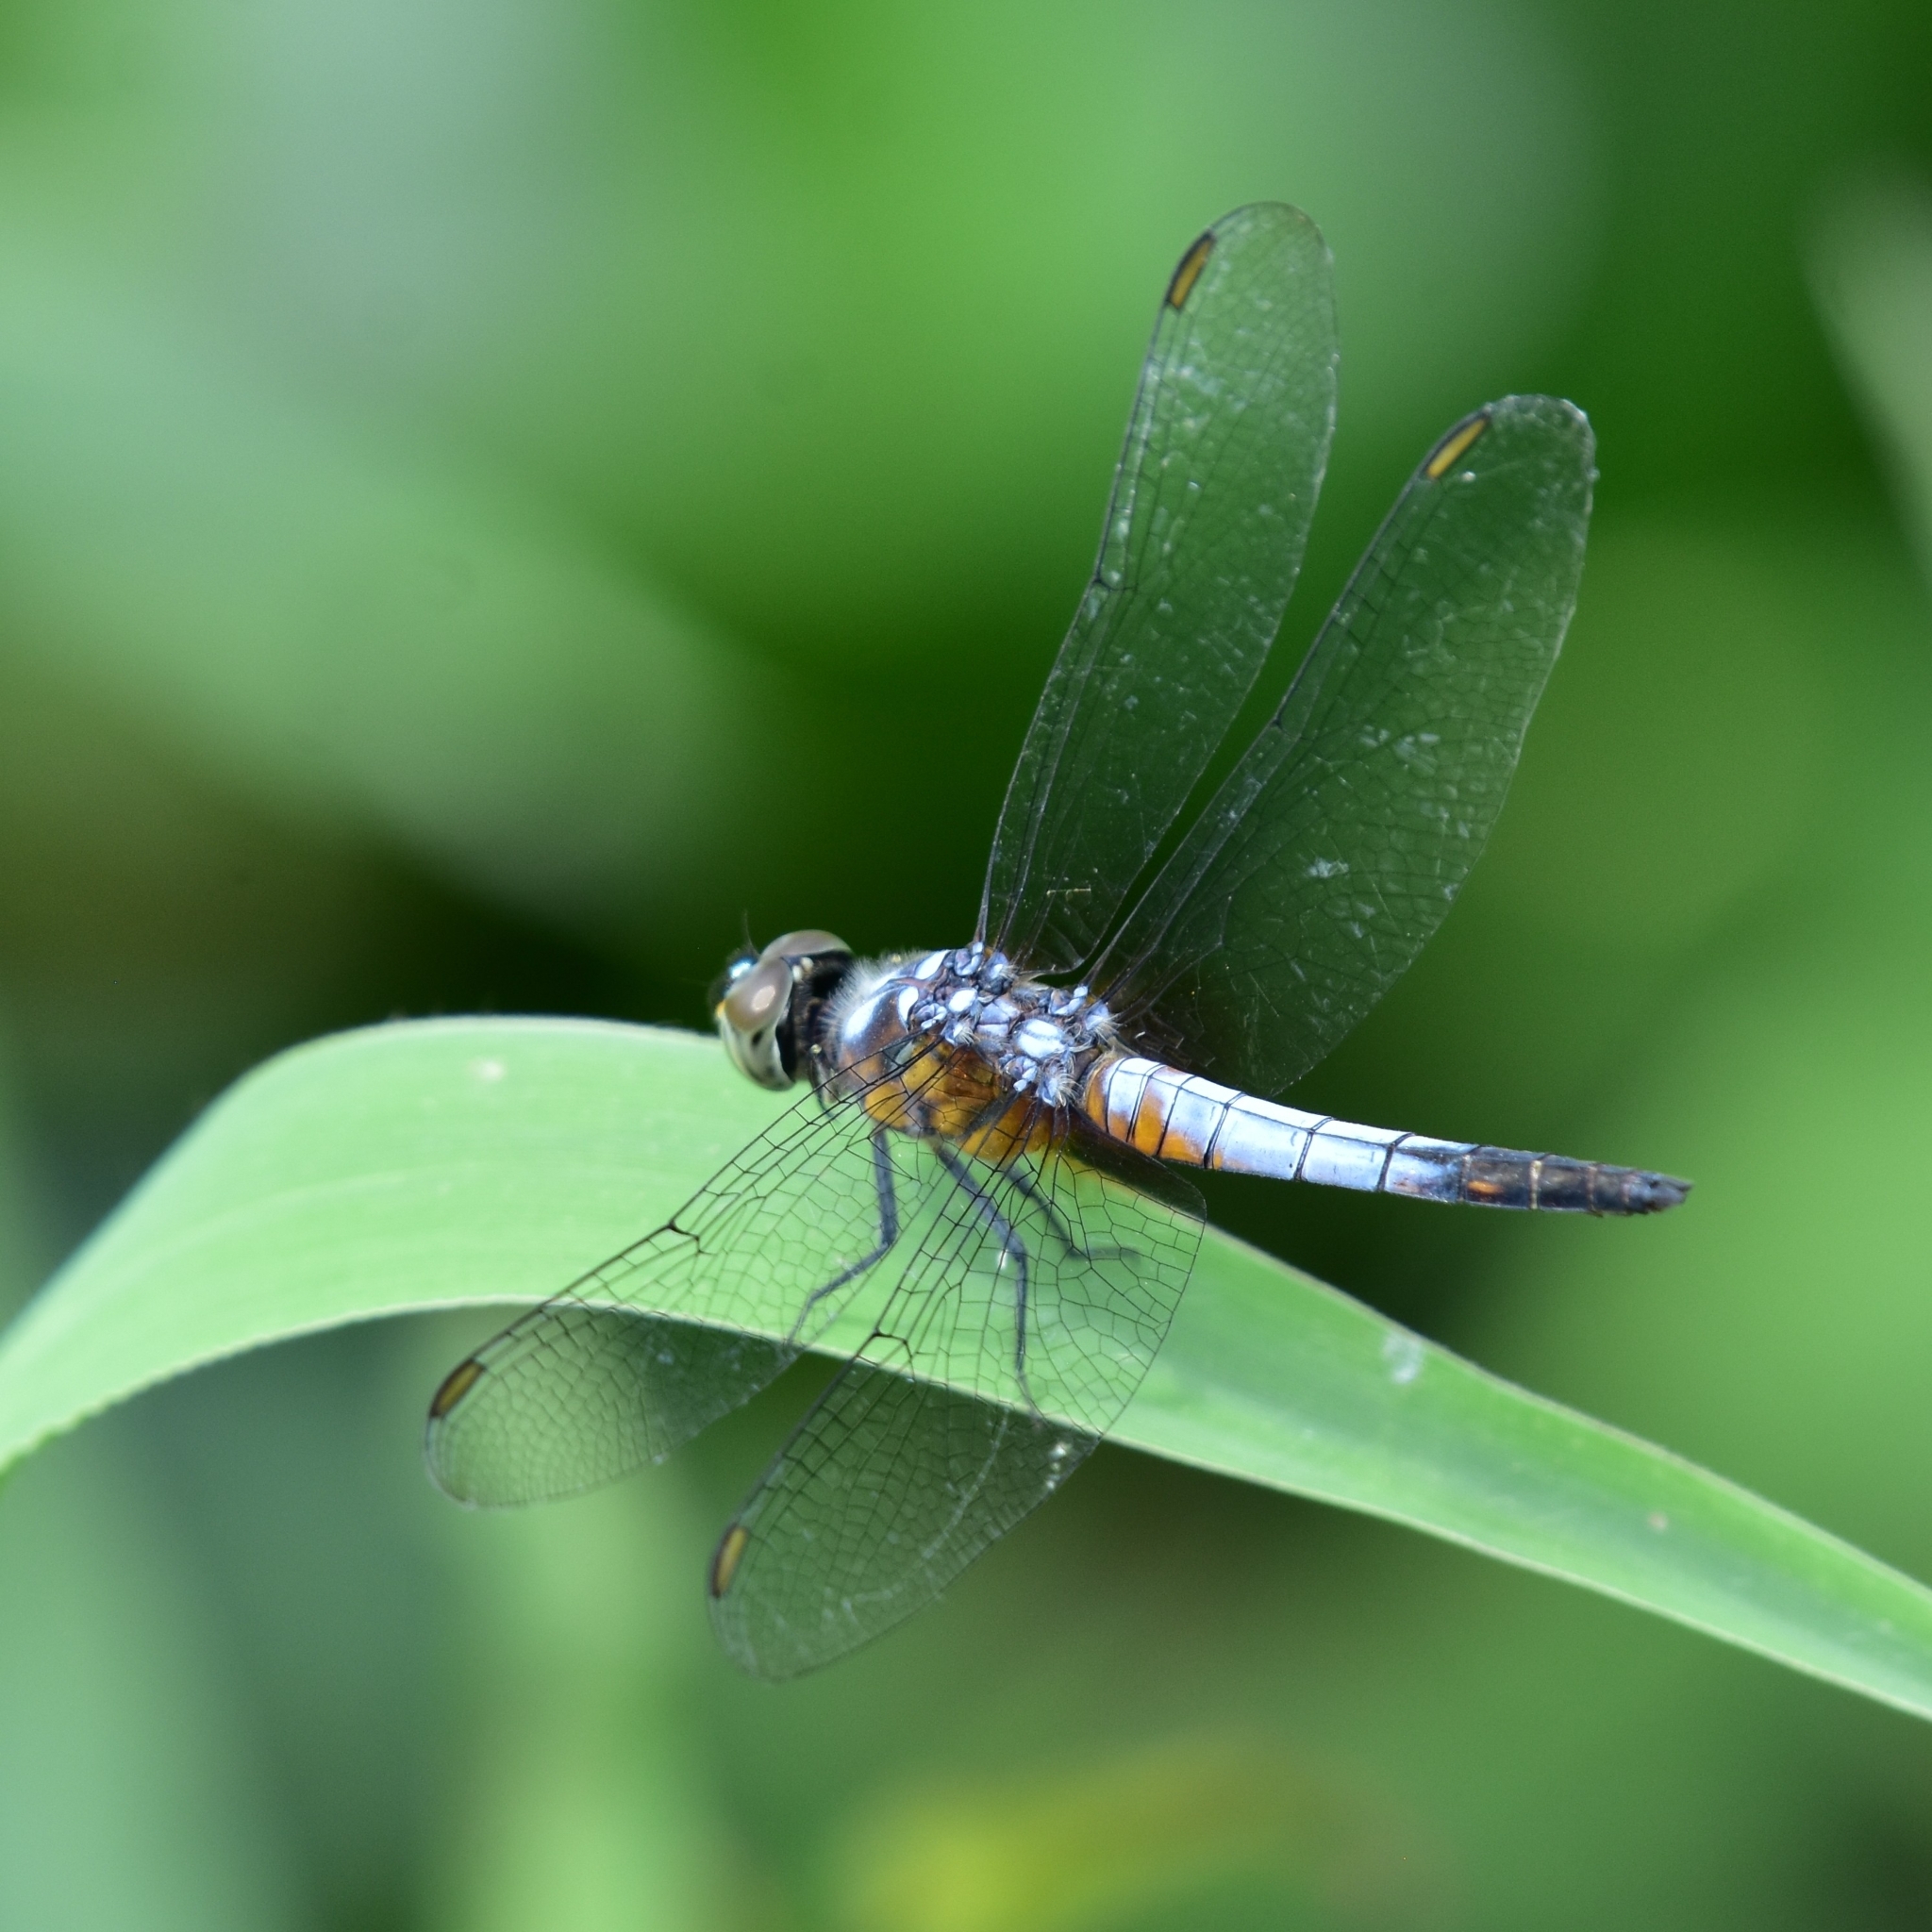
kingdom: Animalia
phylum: Arthropoda
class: Insecta
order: Odonata
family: Libellulidae
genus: Brachydiplax
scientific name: Brachydiplax chalybea
